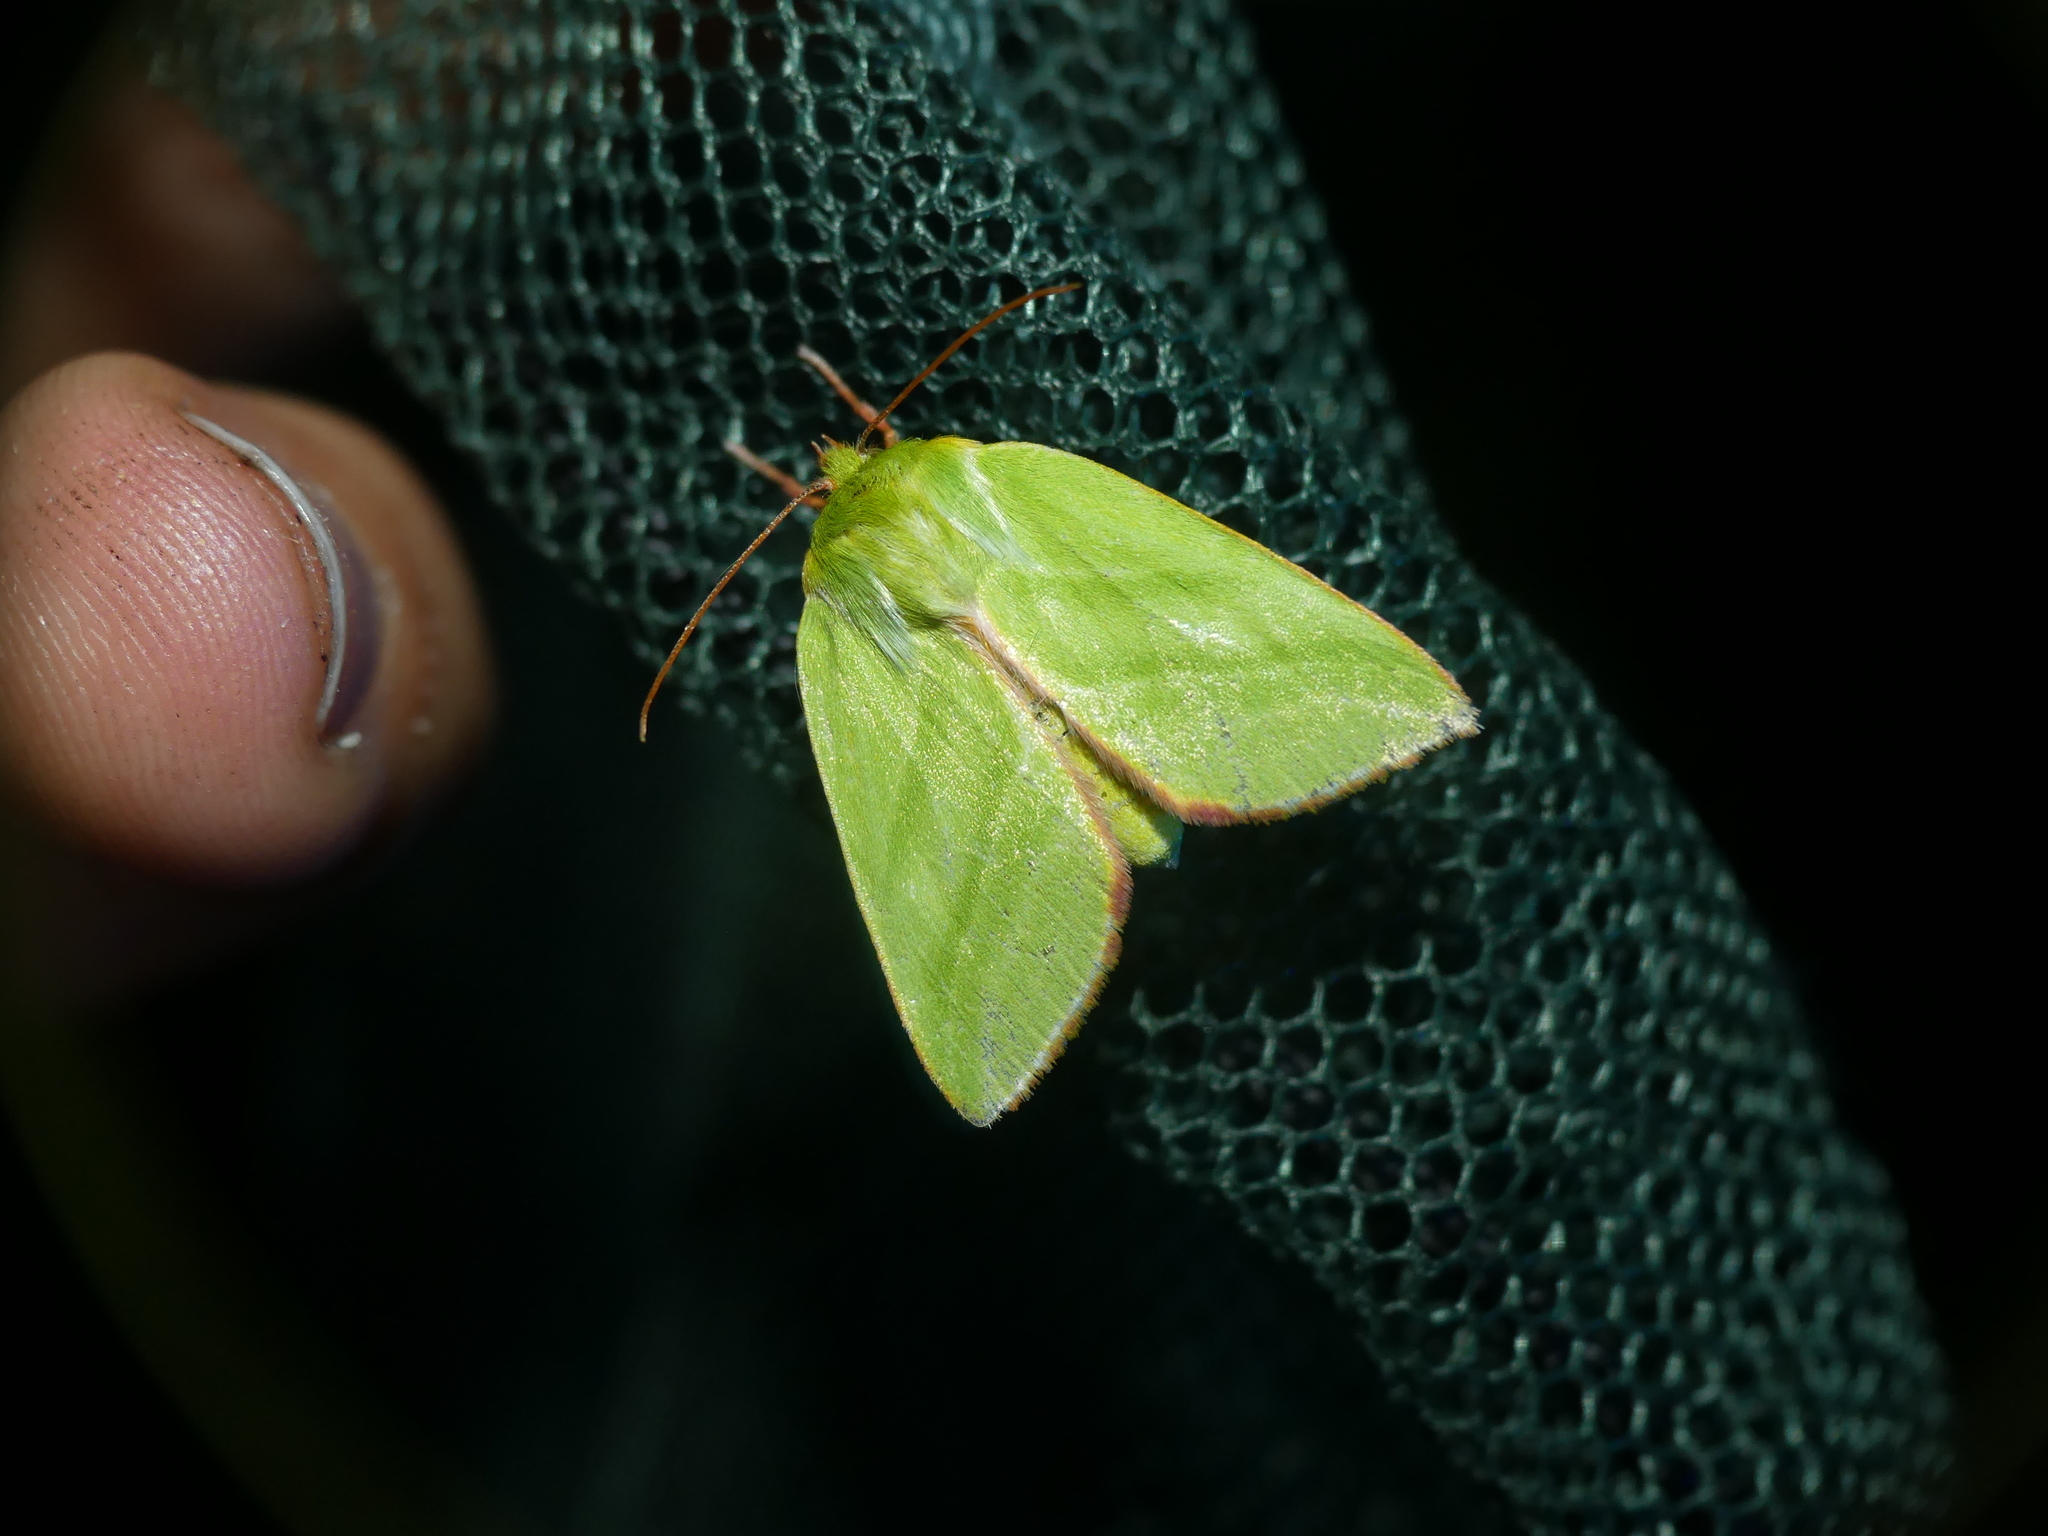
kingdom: Animalia
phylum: Arthropoda
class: Insecta
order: Lepidoptera
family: Nolidae
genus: Pseudoips
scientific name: Pseudoips prasinana
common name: Green silver-lines
